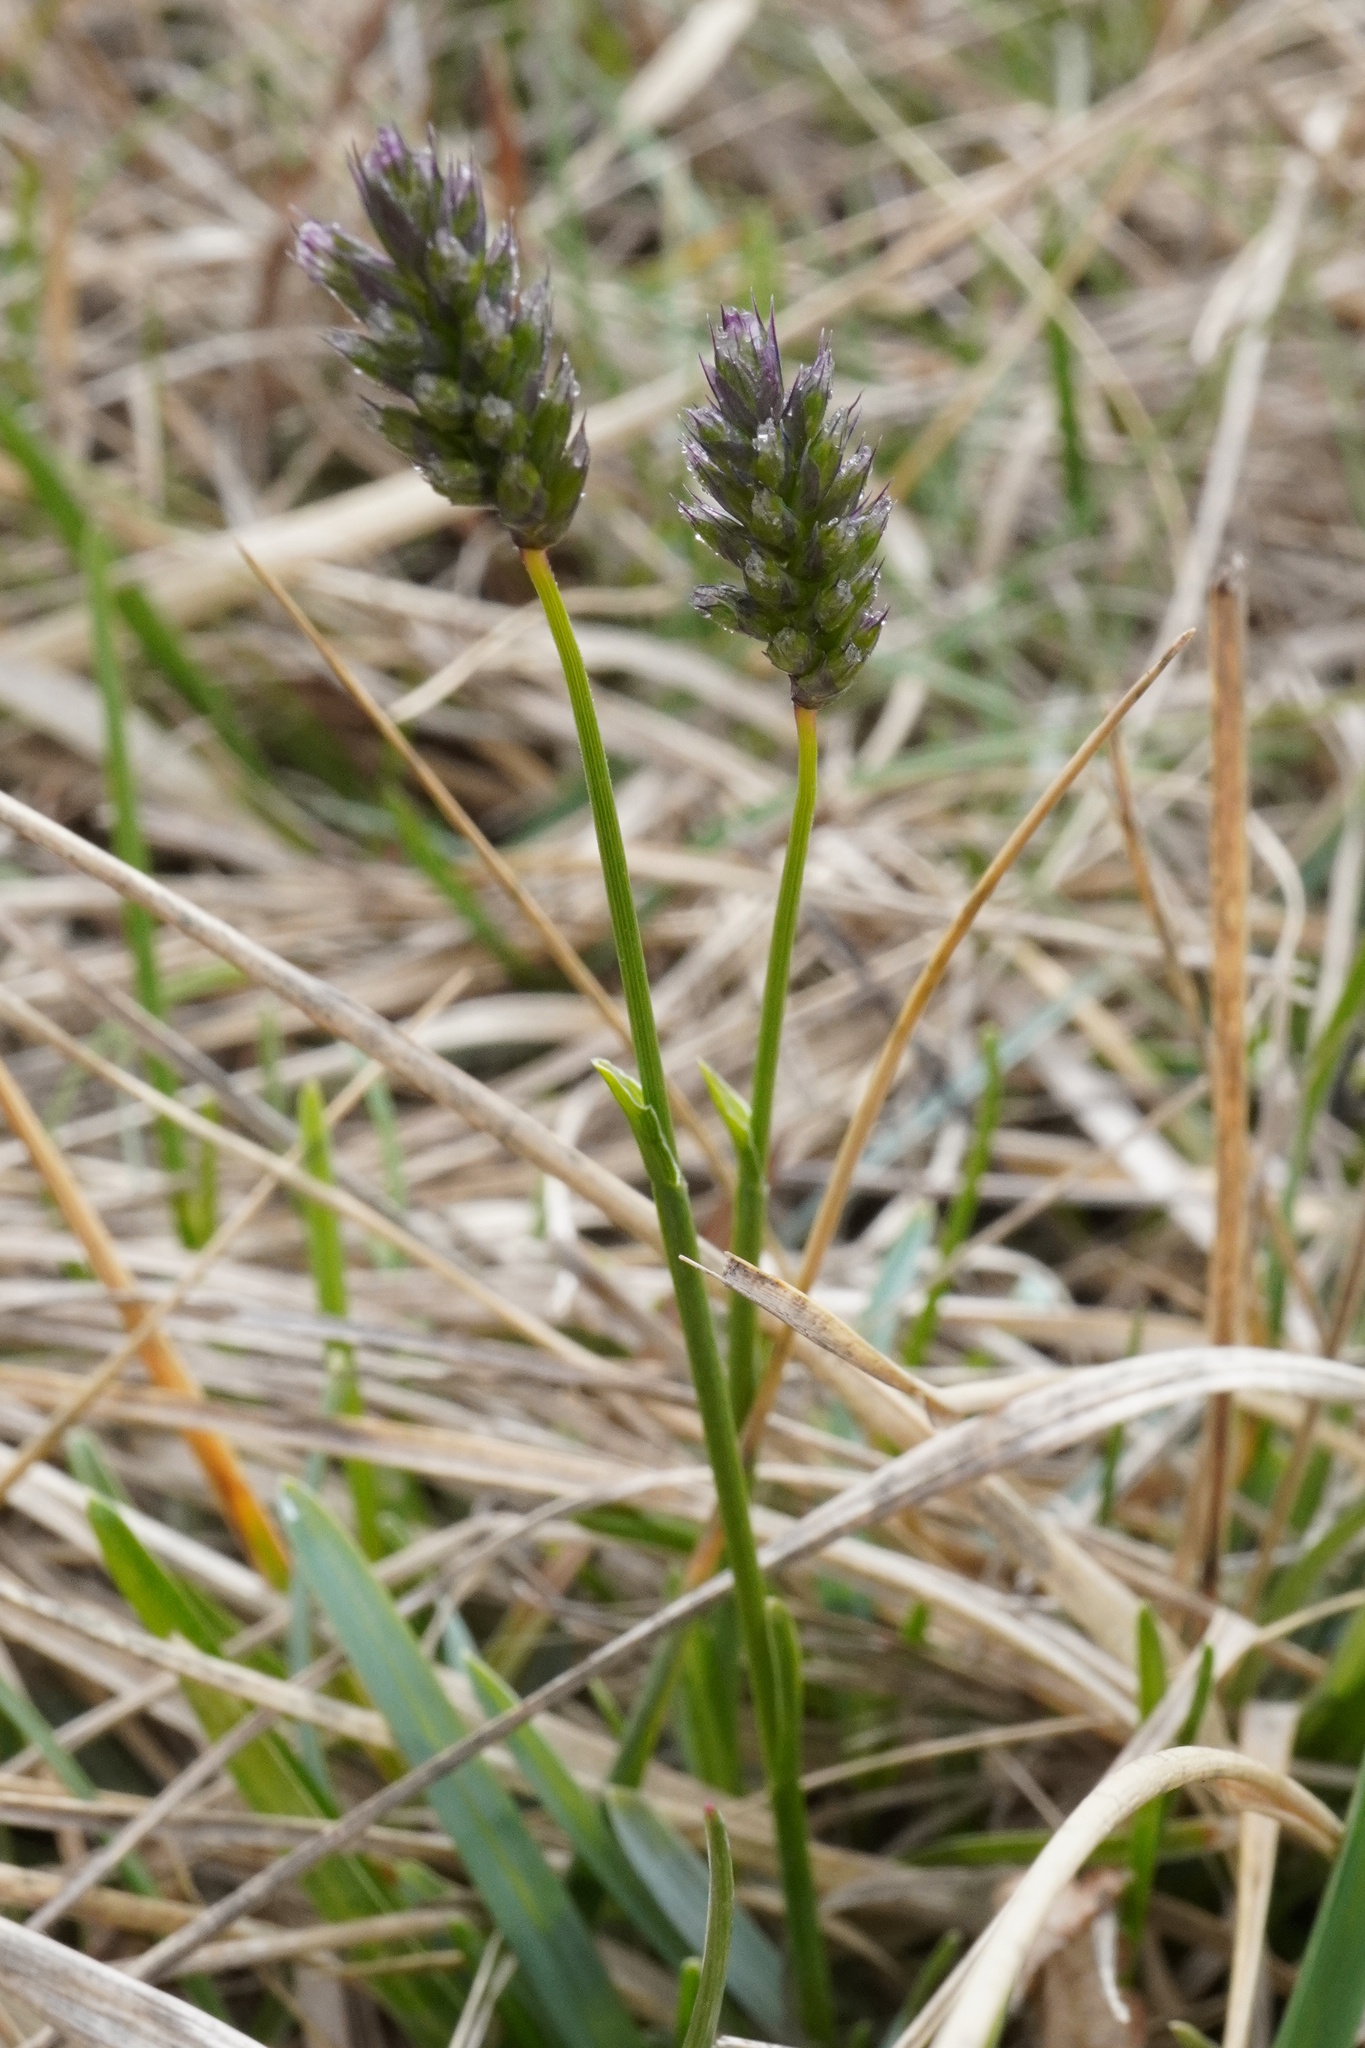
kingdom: Plantae
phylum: Tracheophyta
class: Liliopsida
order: Poales
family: Poaceae
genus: Sesleria
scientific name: Sesleria uliginosa
